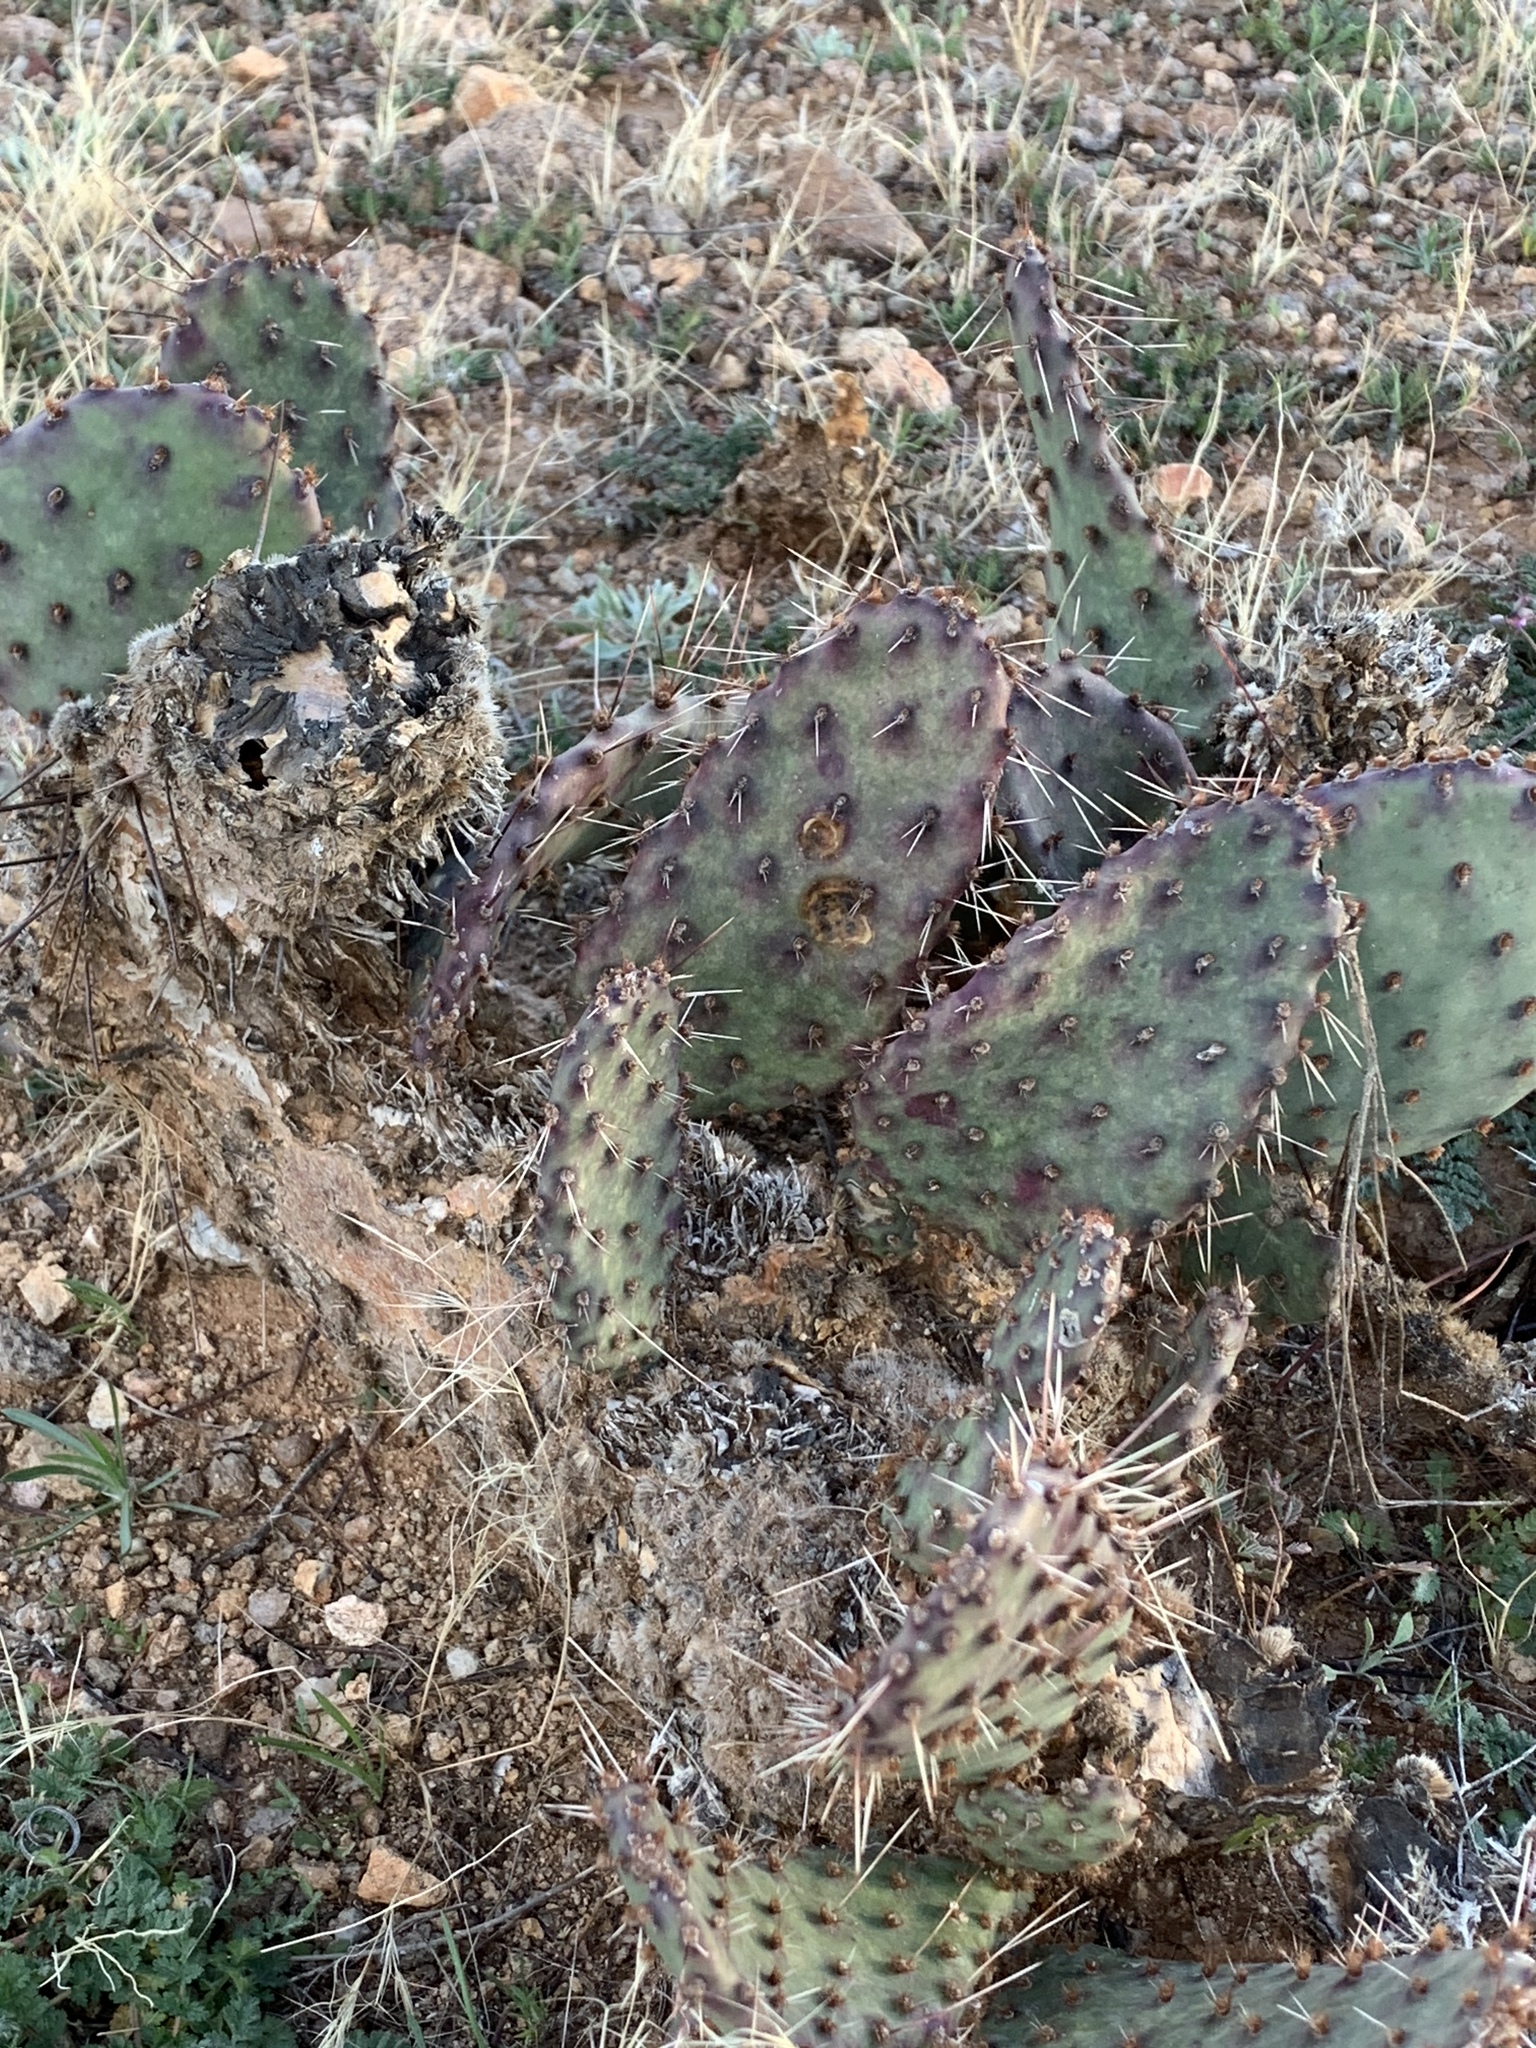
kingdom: Plantae
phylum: Tracheophyta
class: Magnoliopsida
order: Caryophyllales
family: Cactaceae
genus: Opuntia
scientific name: Opuntia macrocentra
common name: Purple prickly-pear
